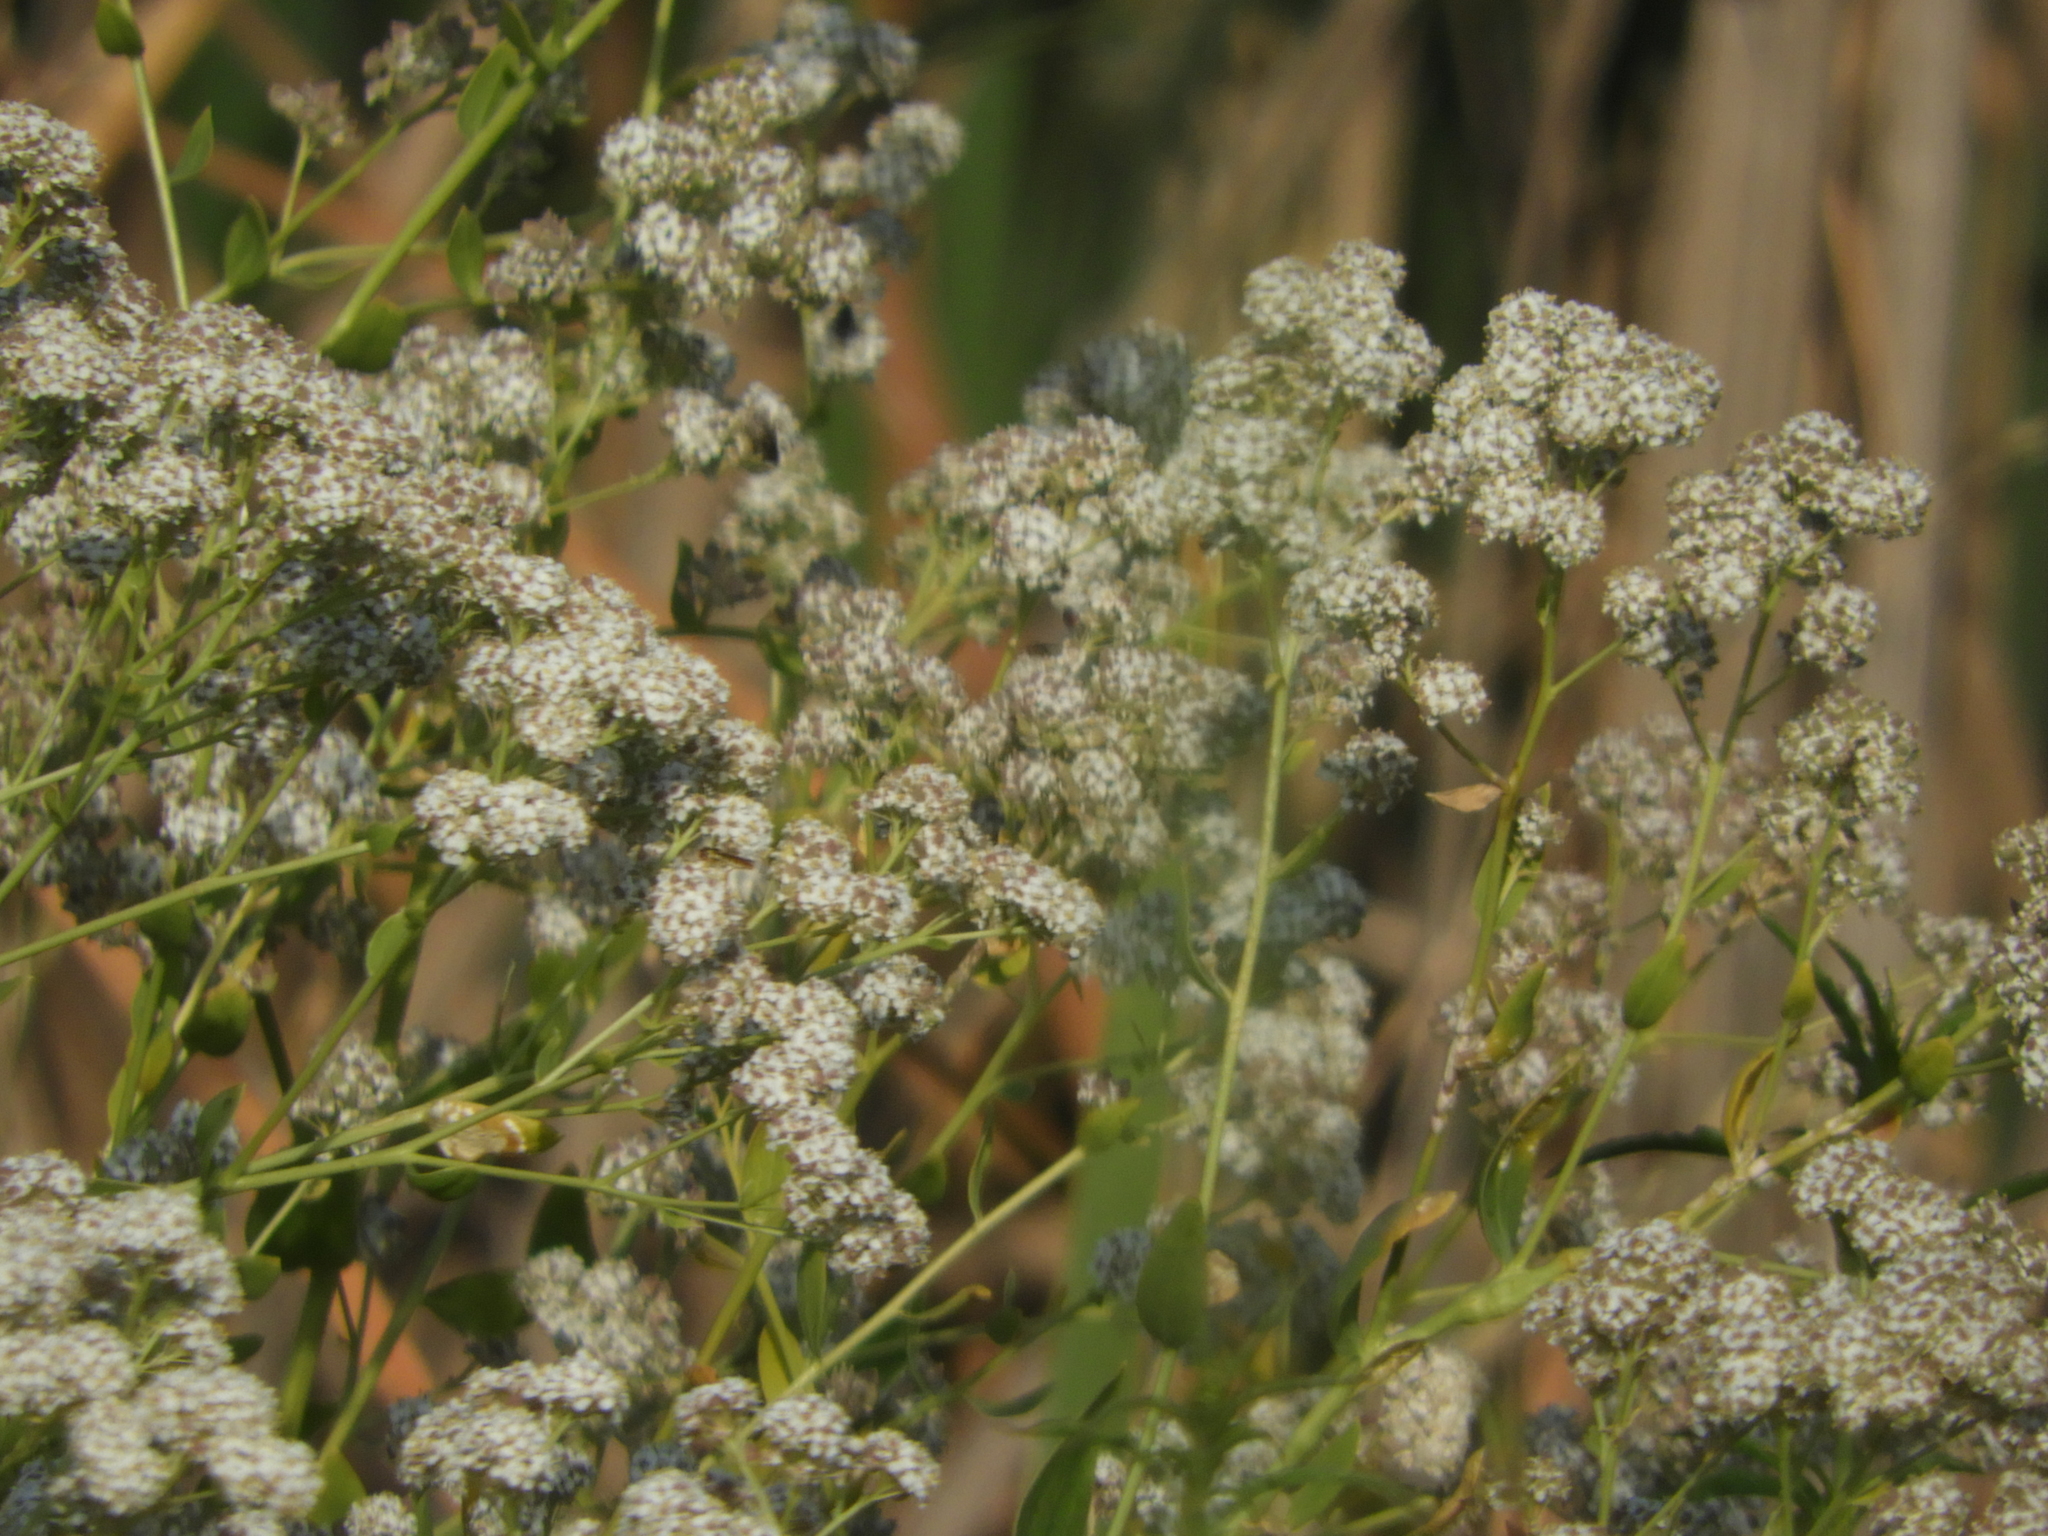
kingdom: Plantae
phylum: Tracheophyta
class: Magnoliopsida
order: Brassicales
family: Brassicaceae
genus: Lepidium
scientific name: Lepidium latifolium
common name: Dittander
